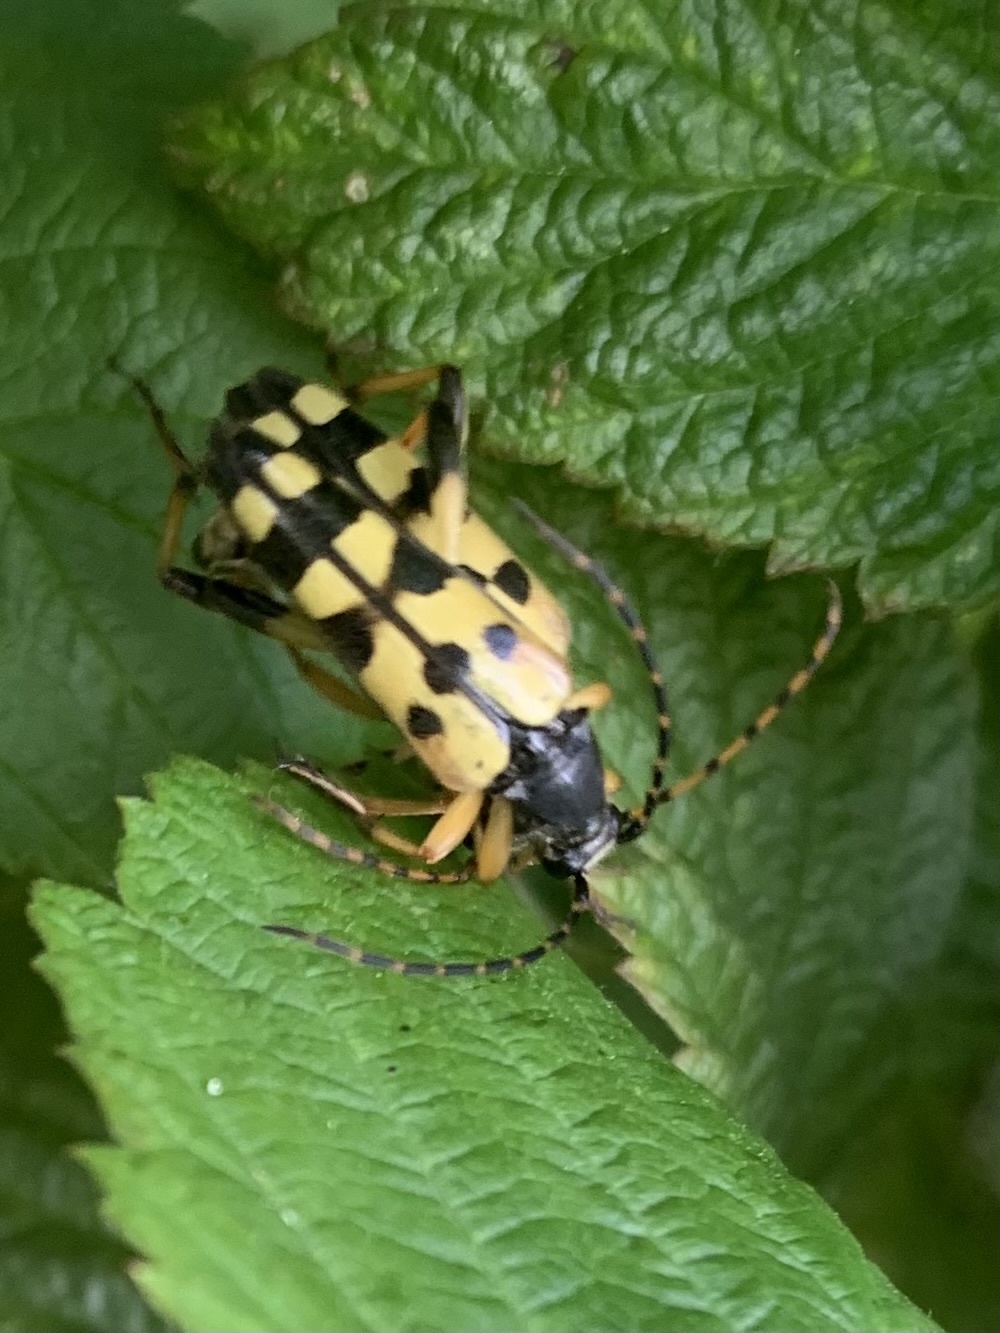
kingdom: Animalia
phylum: Arthropoda
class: Insecta
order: Coleoptera
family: Cerambycidae
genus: Rutpela
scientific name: Rutpela maculata
